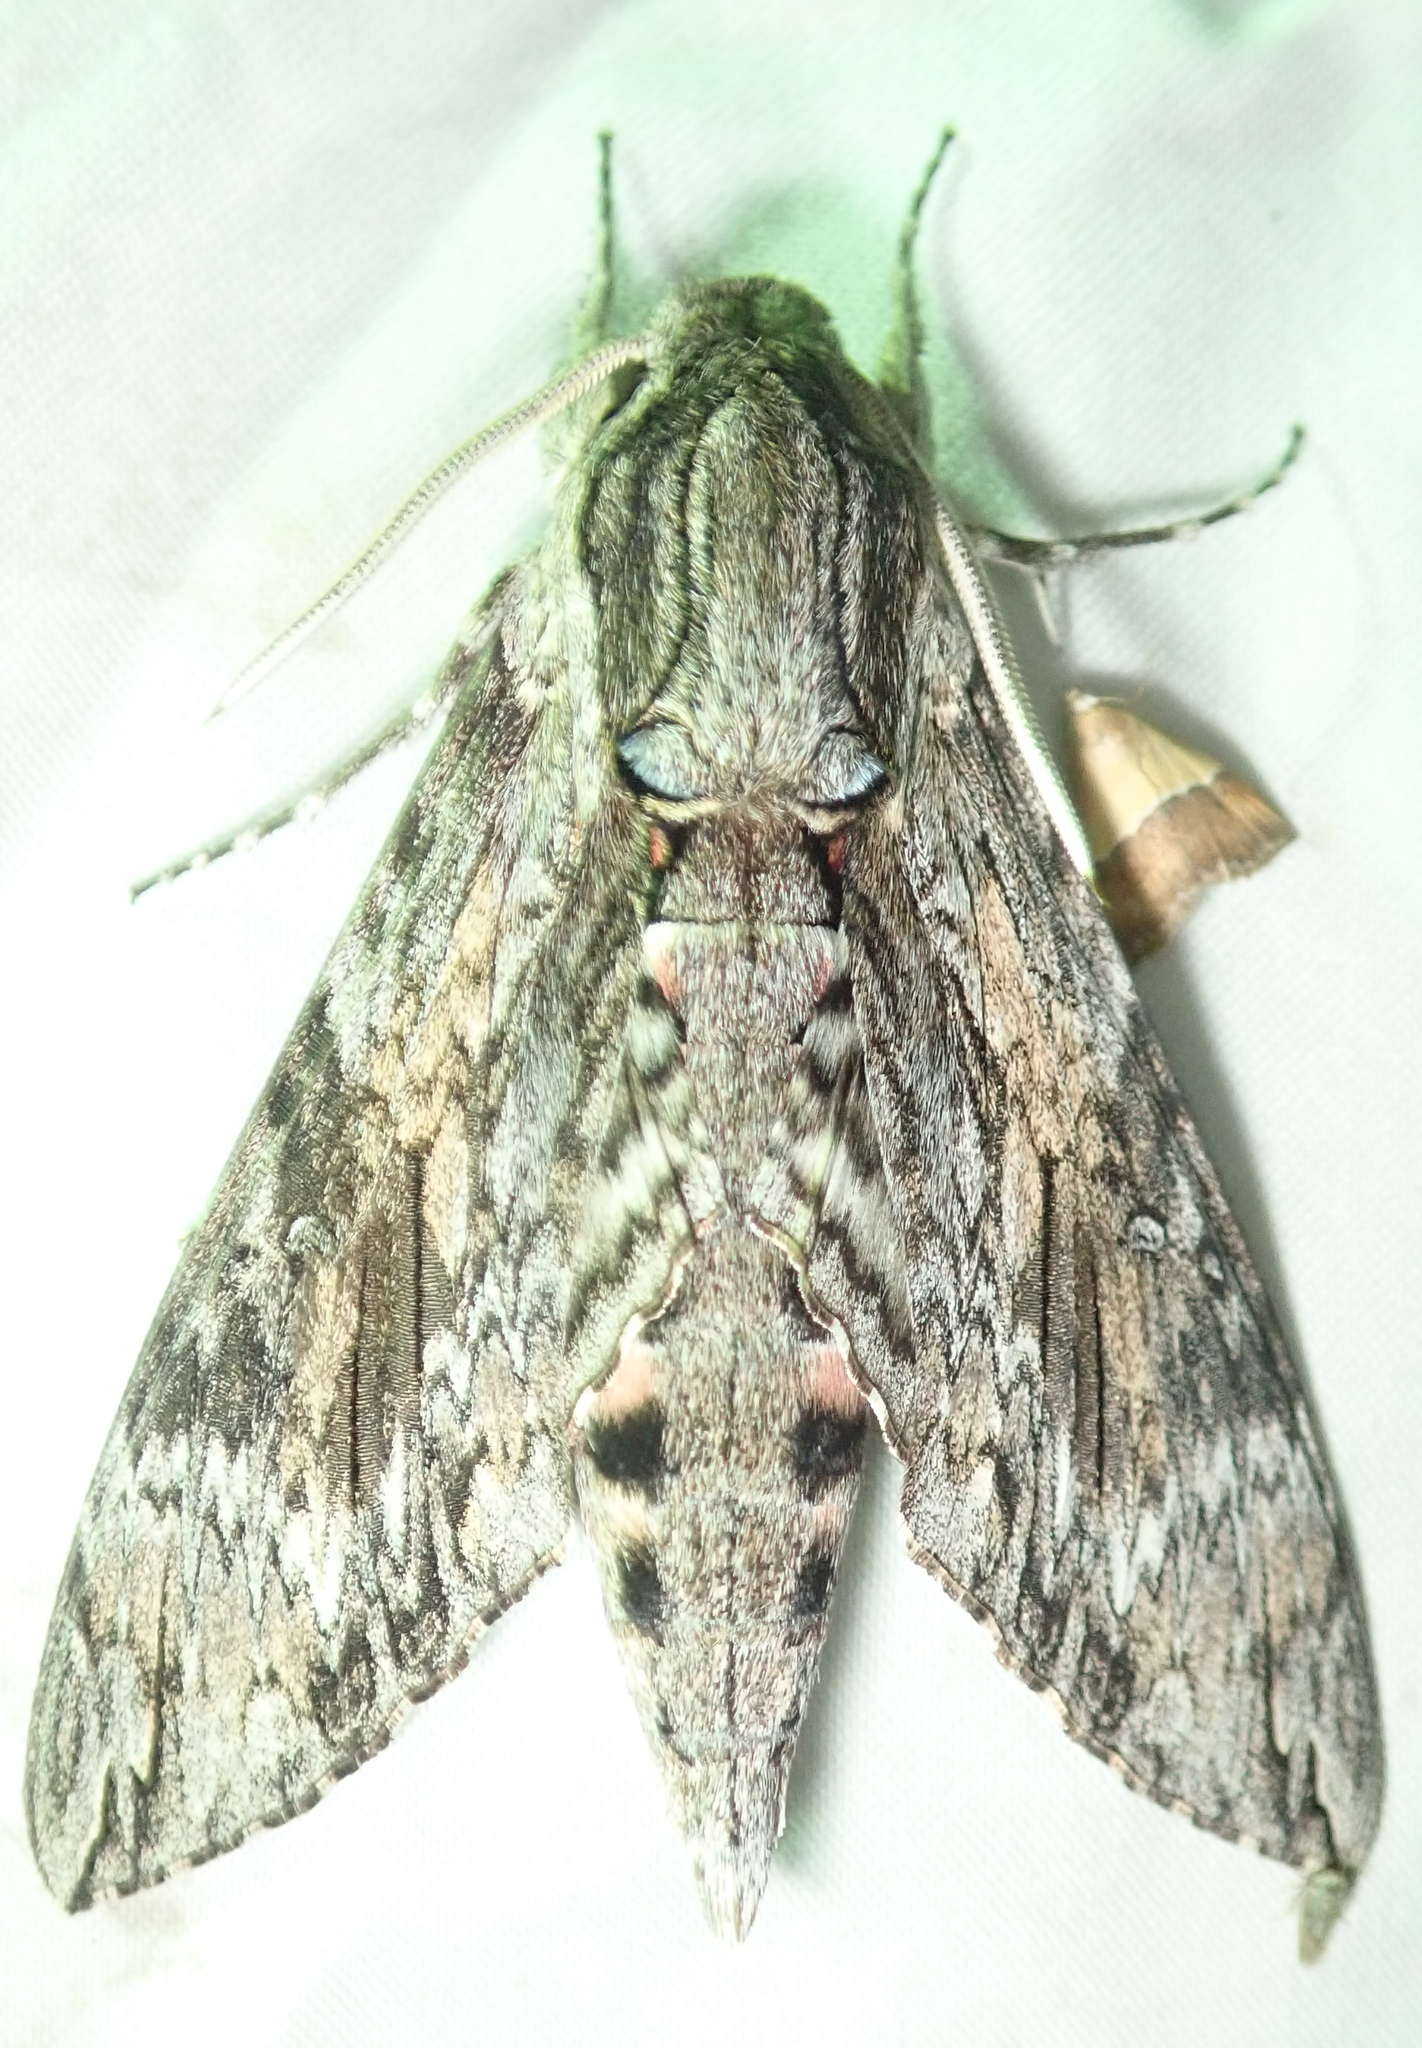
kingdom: Animalia
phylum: Arthropoda
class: Insecta
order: Lepidoptera
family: Sphingidae
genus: Agrius
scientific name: Agrius convolvuli
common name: Convolvulus hawkmoth
